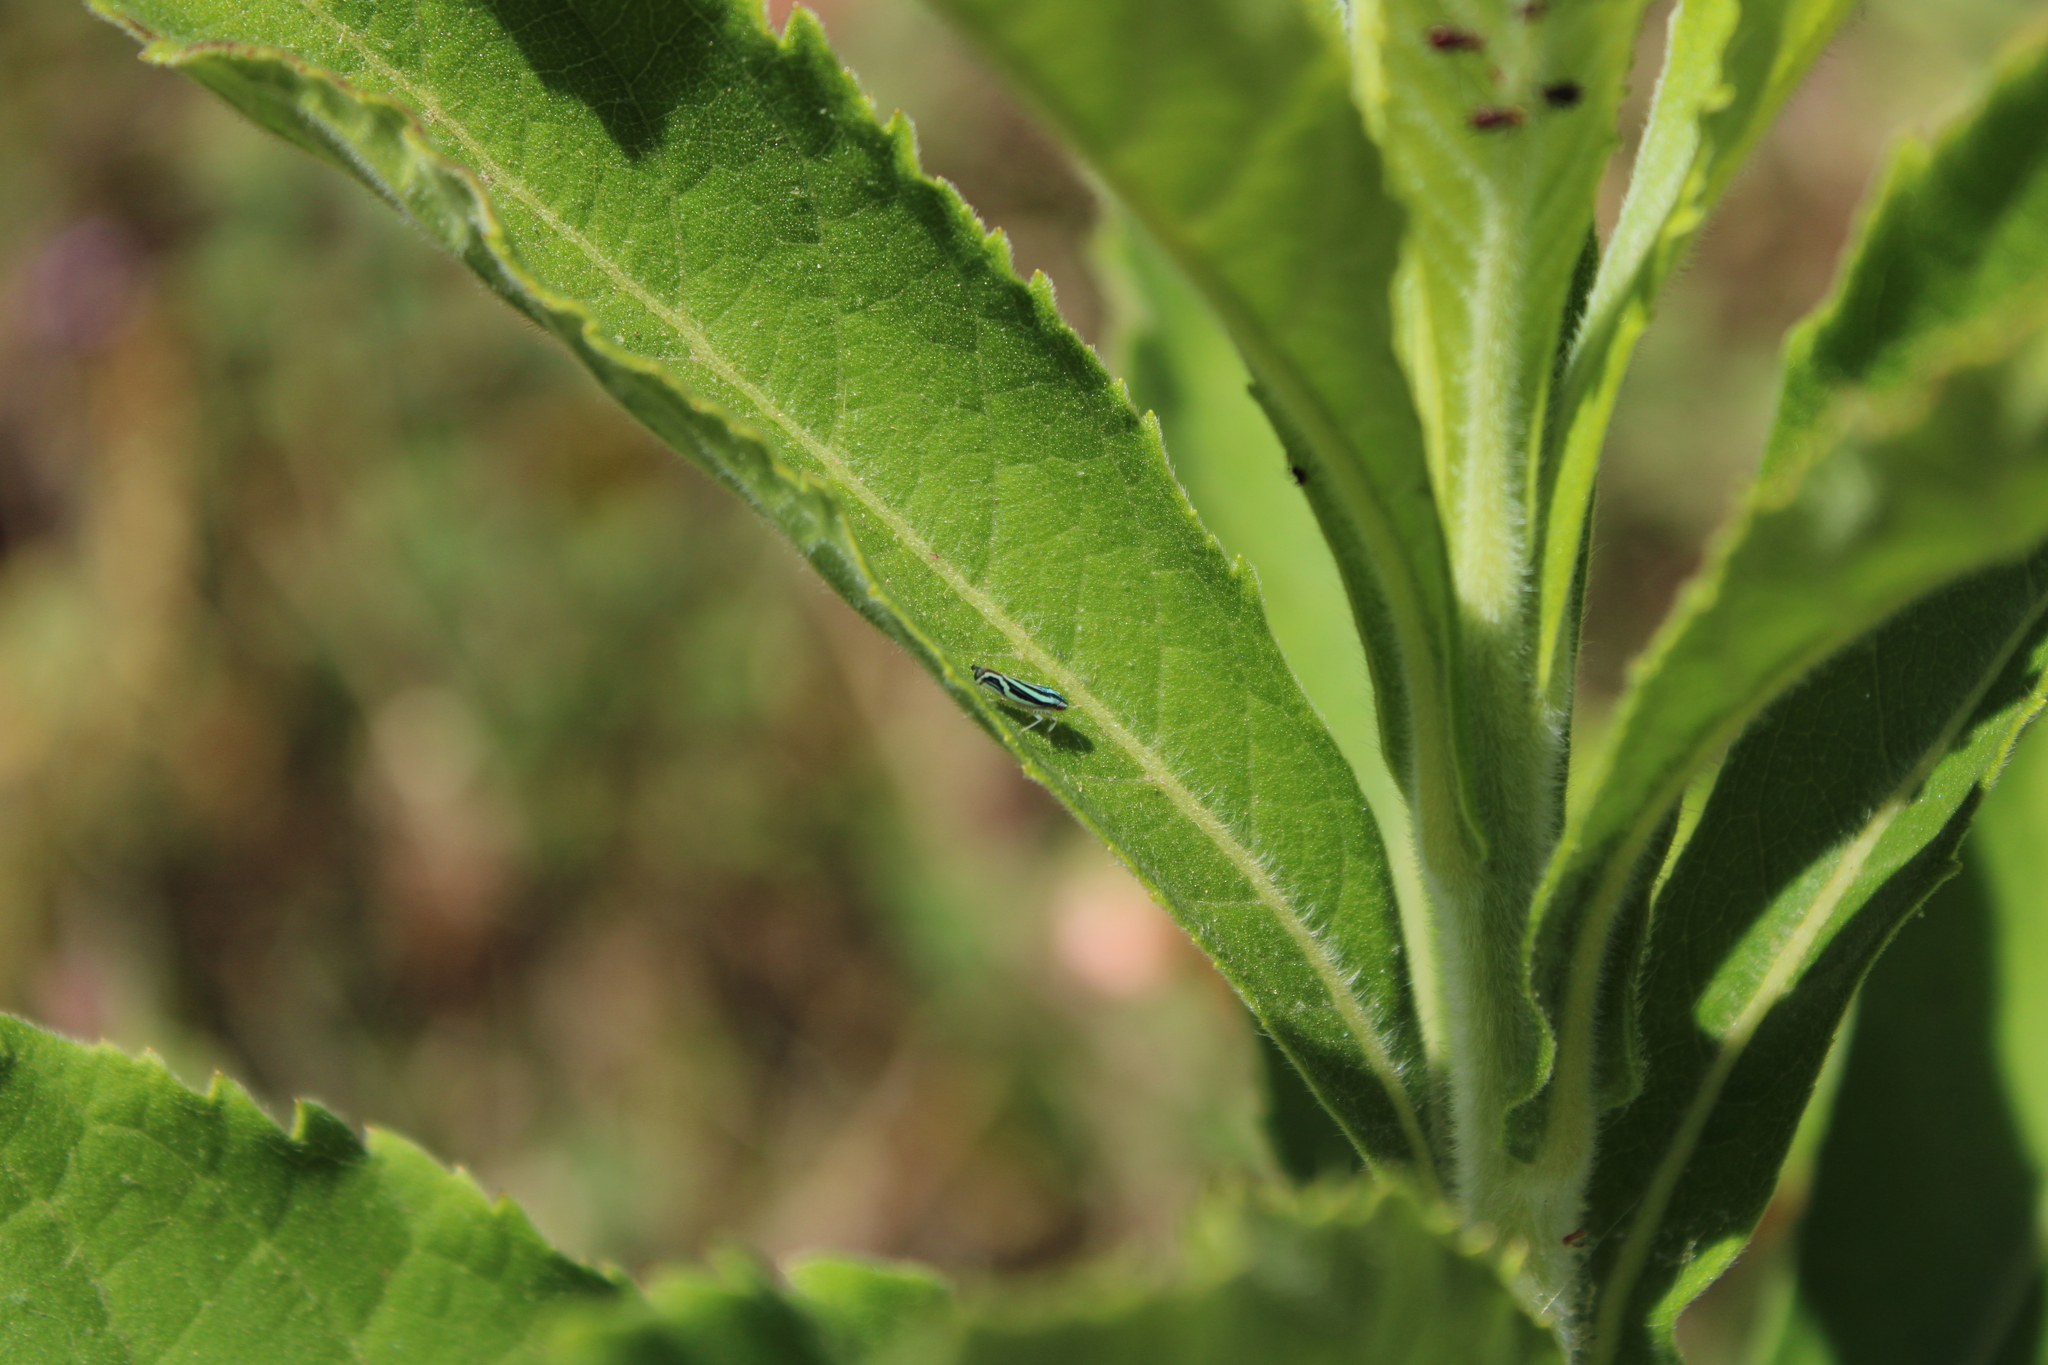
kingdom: Animalia
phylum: Arthropoda
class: Insecta
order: Hemiptera
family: Cicadellidae
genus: Sibovia
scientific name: Sibovia sagata
